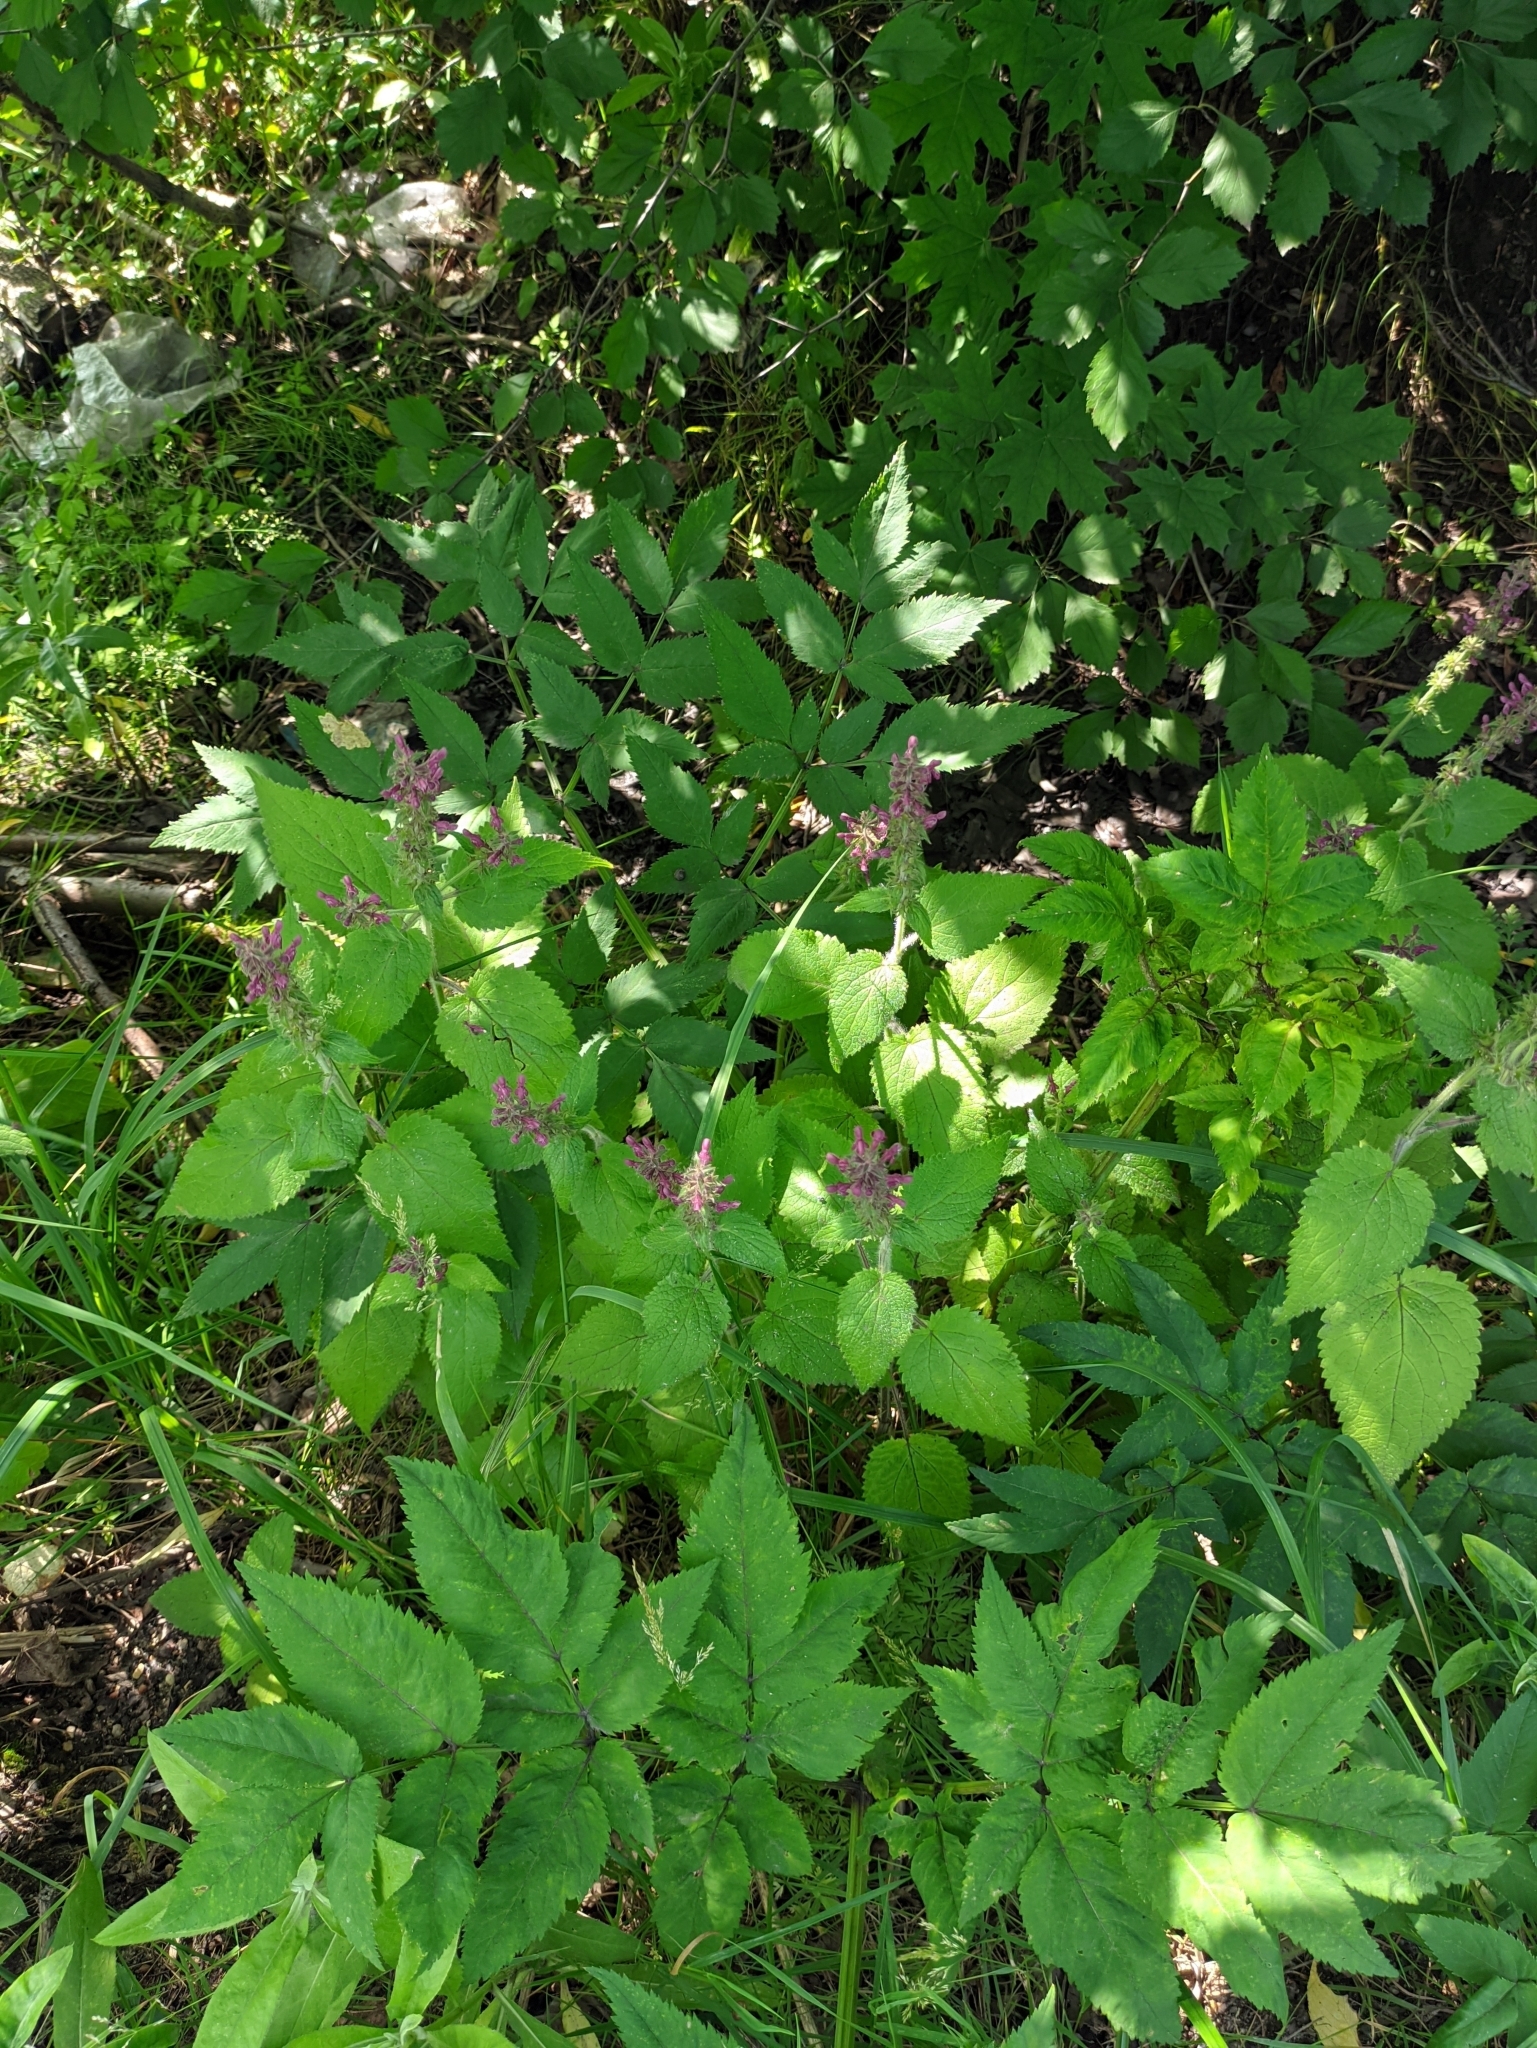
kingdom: Plantae
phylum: Tracheophyta
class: Magnoliopsida
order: Lamiales
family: Lamiaceae
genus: Stachys
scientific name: Stachys sylvatica
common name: Hedge woundwort
